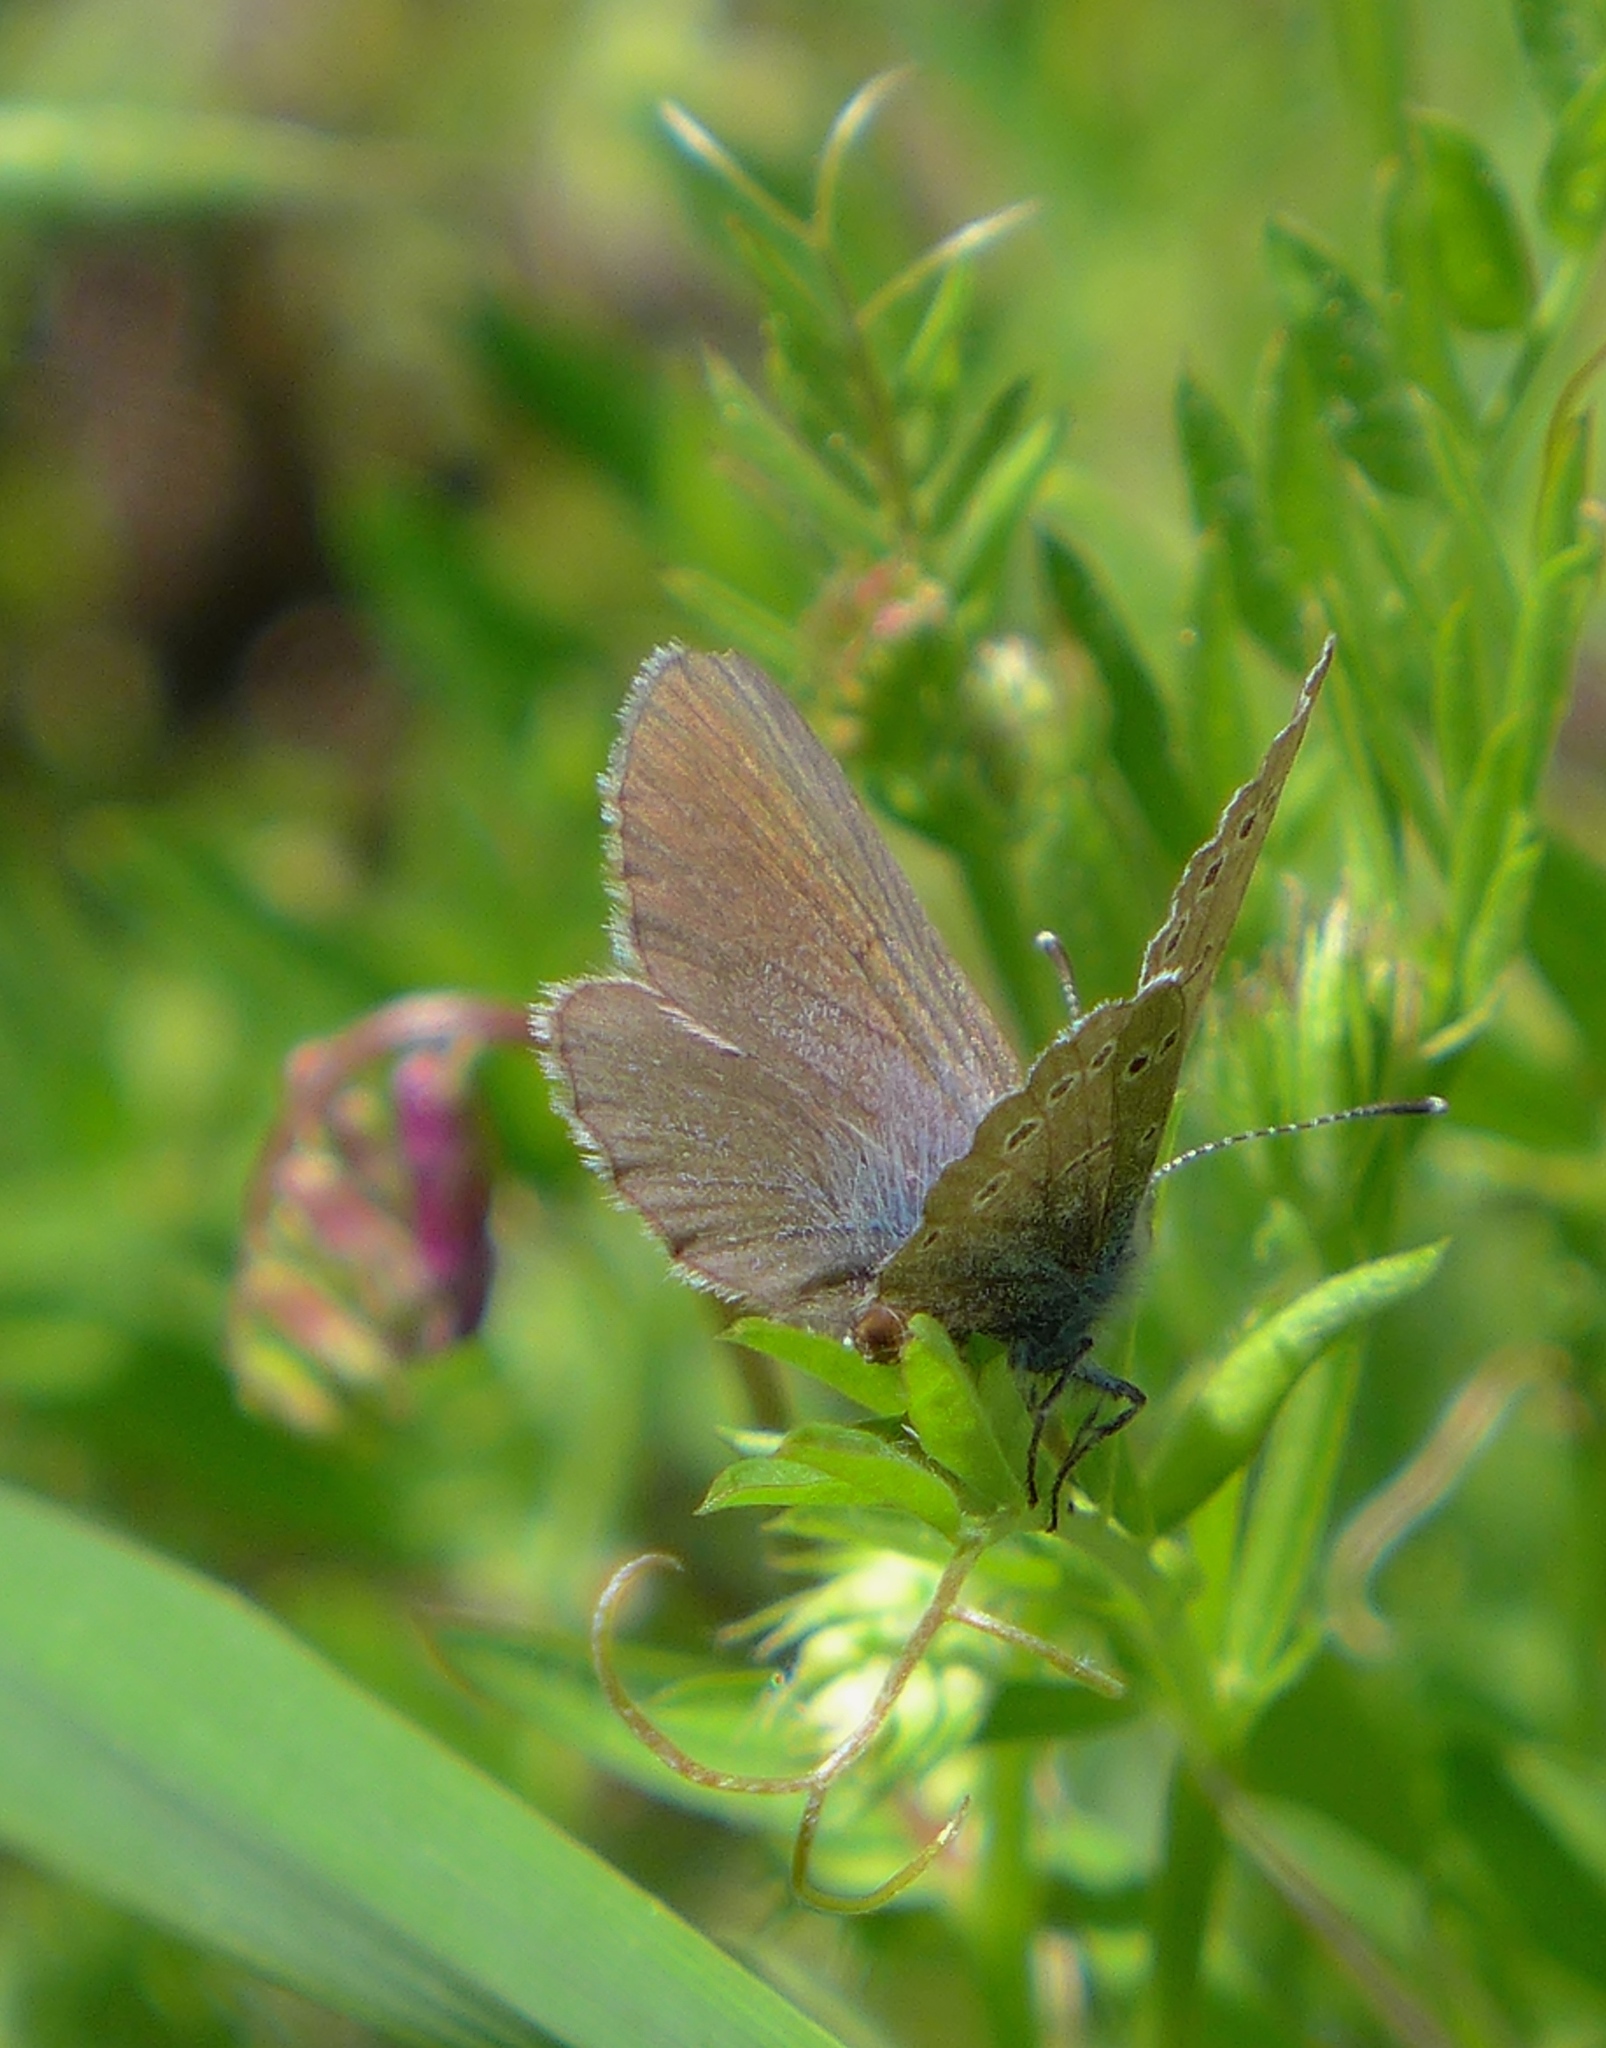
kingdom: Animalia
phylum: Arthropoda
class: Insecta
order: Lepidoptera
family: Lycaenidae
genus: Glaucopsyche
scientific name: Glaucopsyche lygdamus
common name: Silvery blue
